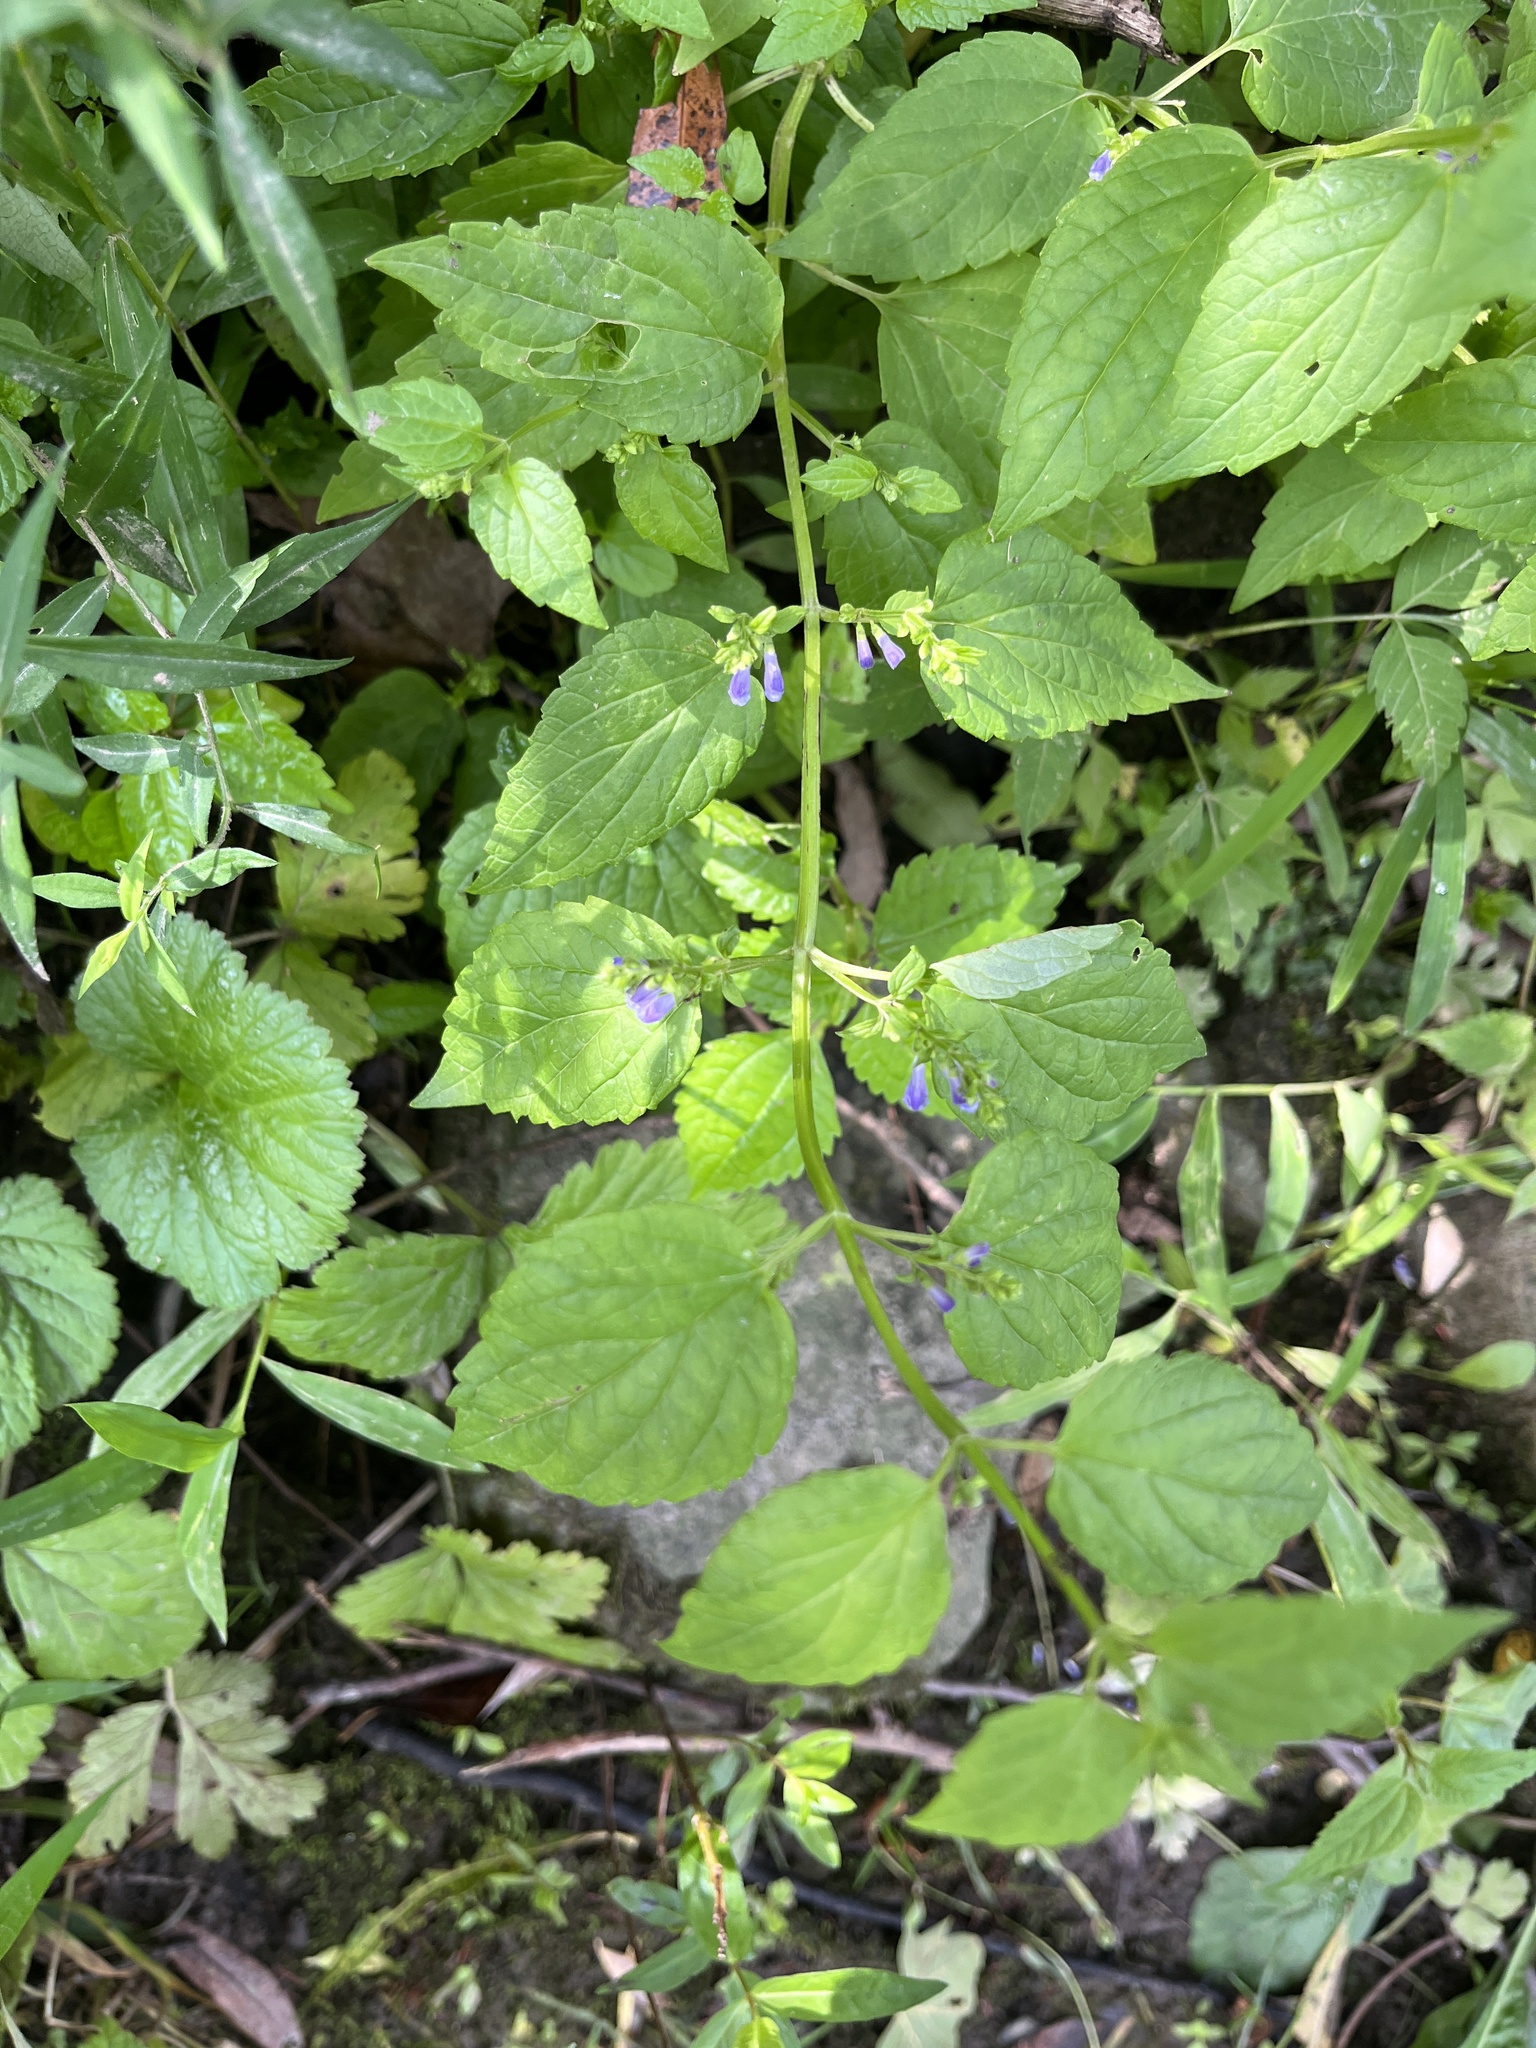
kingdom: Plantae
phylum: Tracheophyta
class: Magnoliopsida
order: Lamiales
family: Lamiaceae
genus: Scutellaria
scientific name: Scutellaria lateriflora
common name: Blue skullcap
